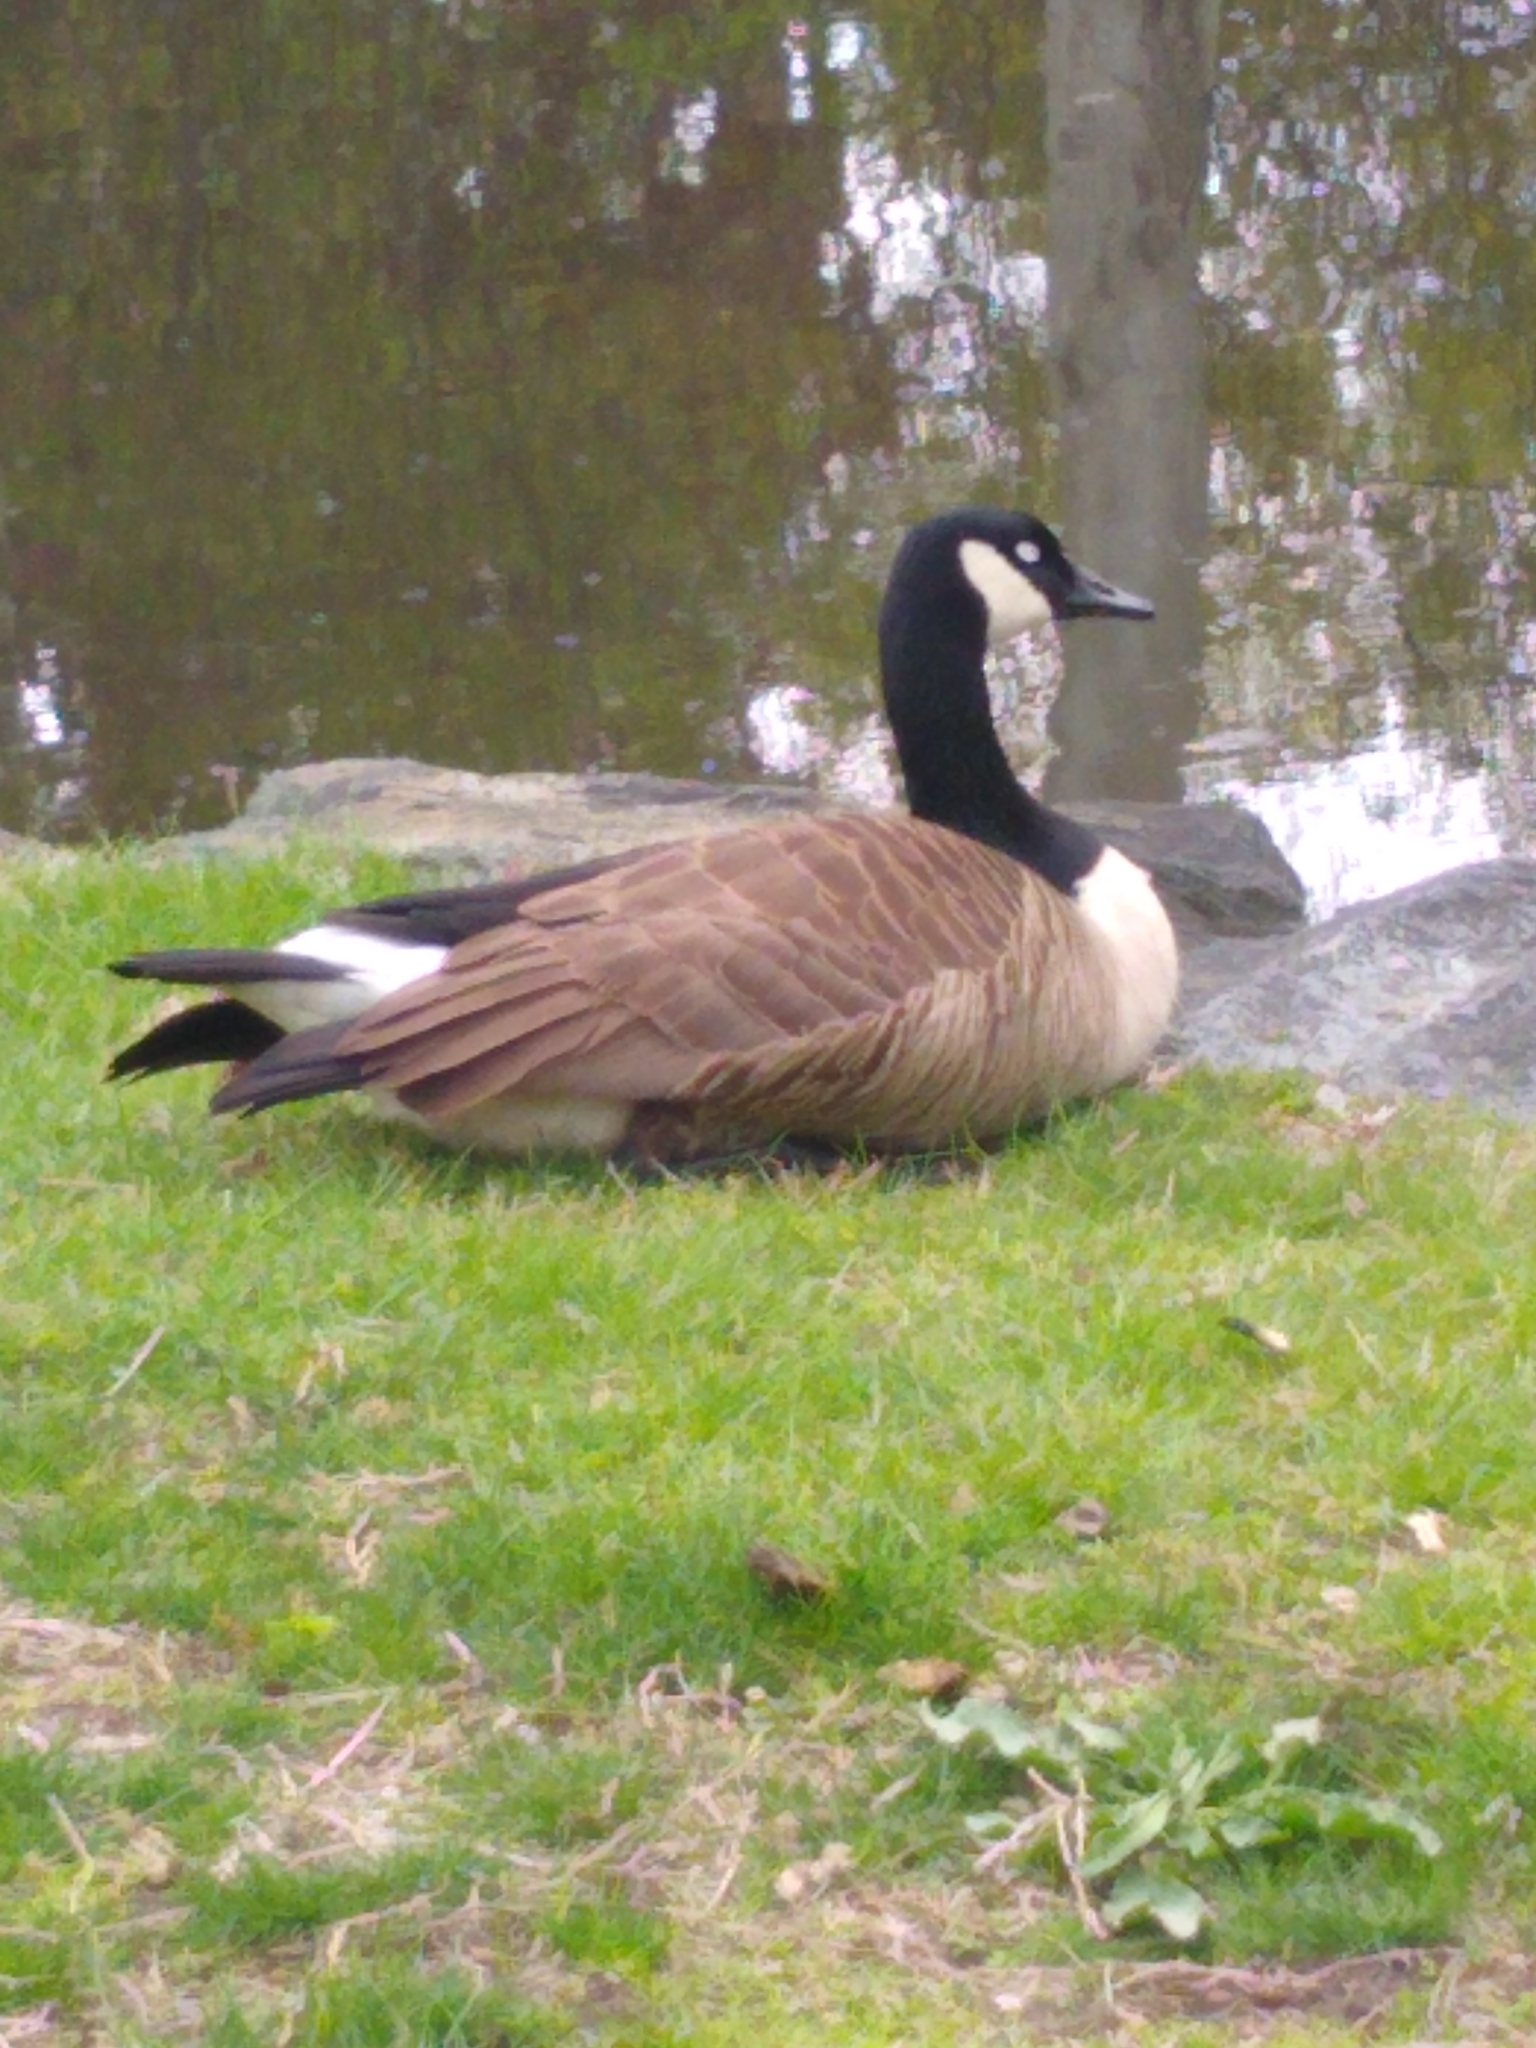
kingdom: Animalia
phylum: Chordata
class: Aves
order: Anseriformes
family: Anatidae
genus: Branta
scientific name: Branta canadensis
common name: Canada goose
